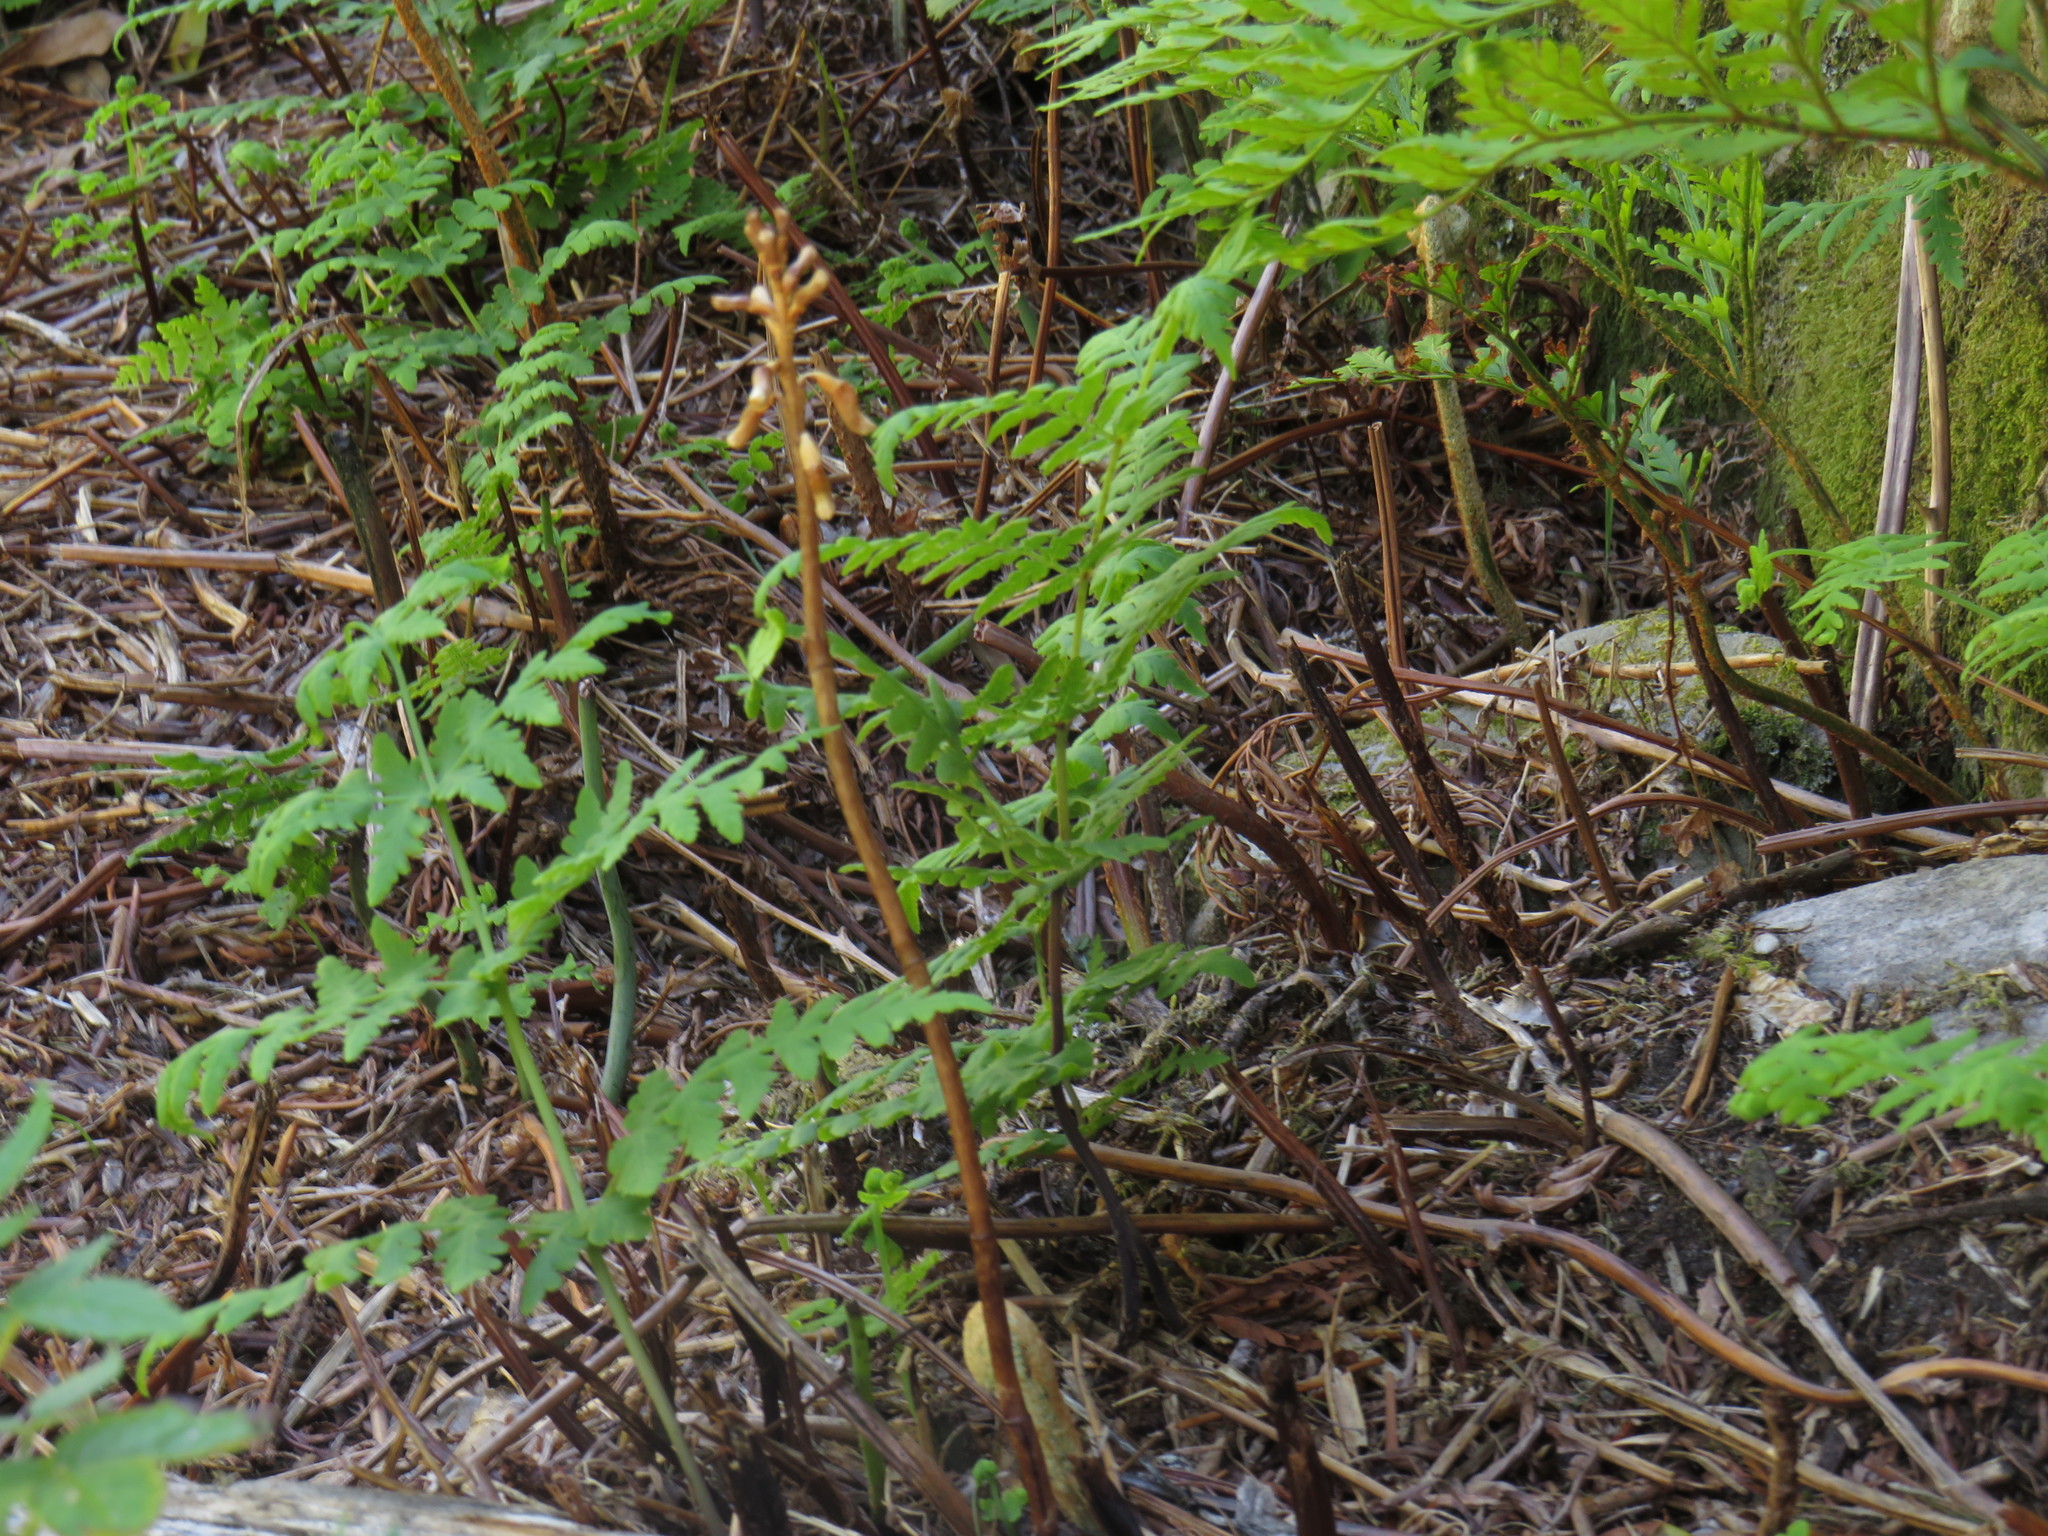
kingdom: Plantae
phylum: Tracheophyta
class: Liliopsida
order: Asparagales
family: Orchidaceae
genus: Gastrodia
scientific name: Gastrodia sesamoides
